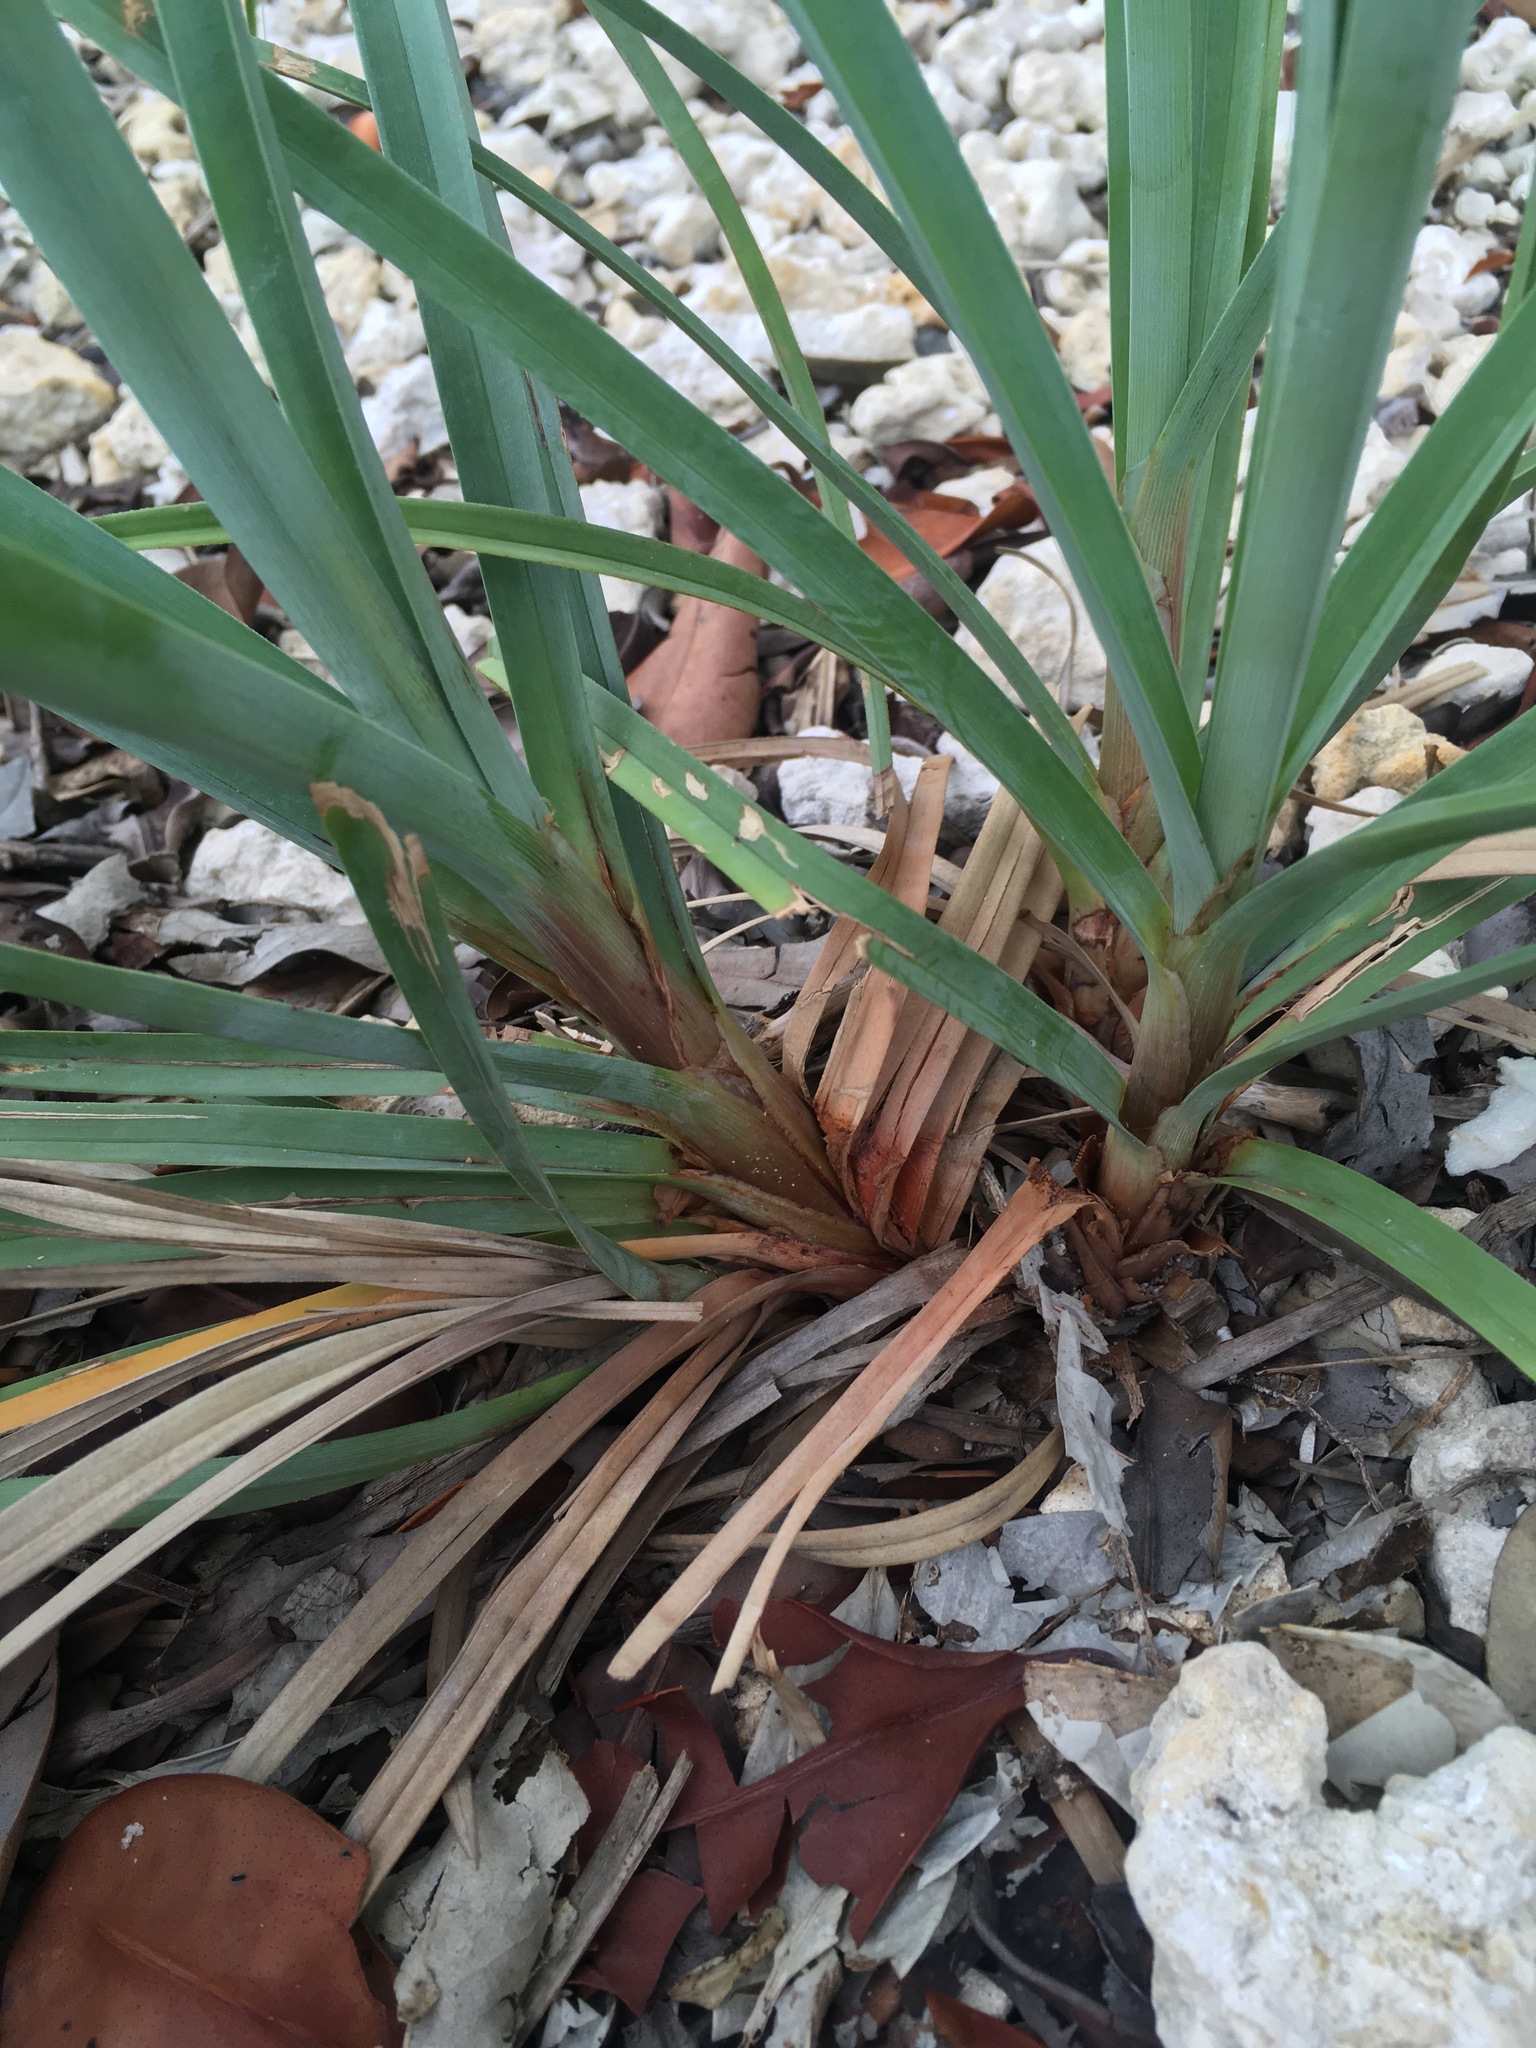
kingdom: Plantae
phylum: Tracheophyta
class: Liliopsida
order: Poales
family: Cyperaceae
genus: Cyperus
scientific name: Cyperus ligularis
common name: Swamp flat sedge
